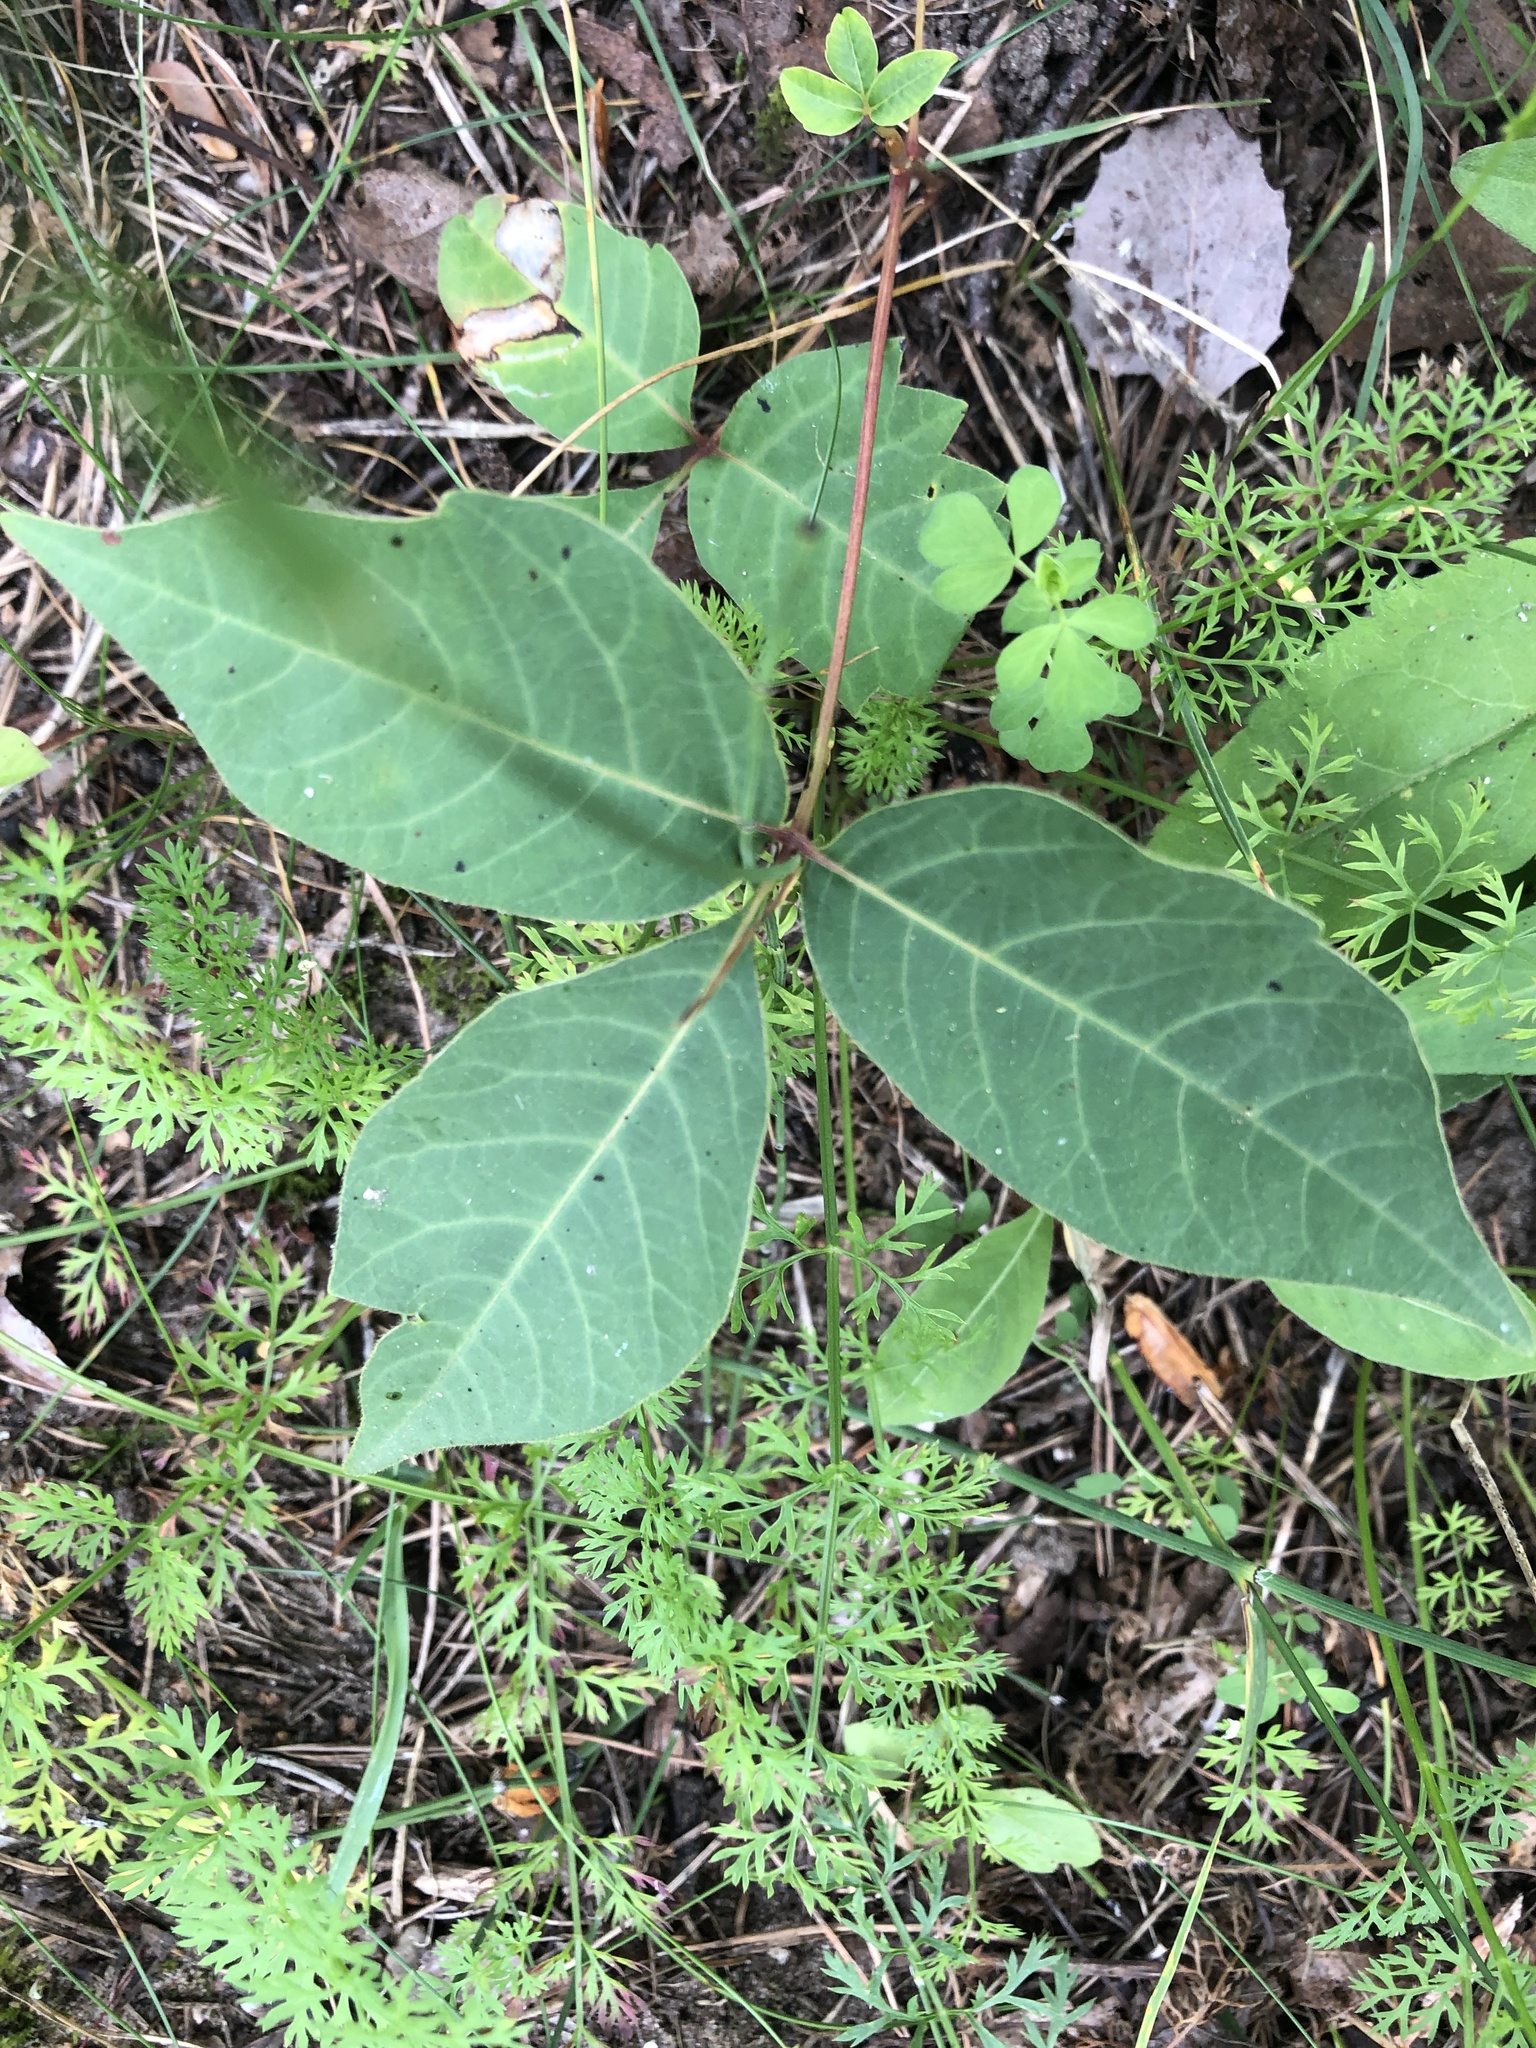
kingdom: Plantae
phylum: Tracheophyta
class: Magnoliopsida
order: Sapindales
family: Anacardiaceae
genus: Toxicodendron
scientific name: Toxicodendron rydbergii
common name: Rydberg's poison-ivy
